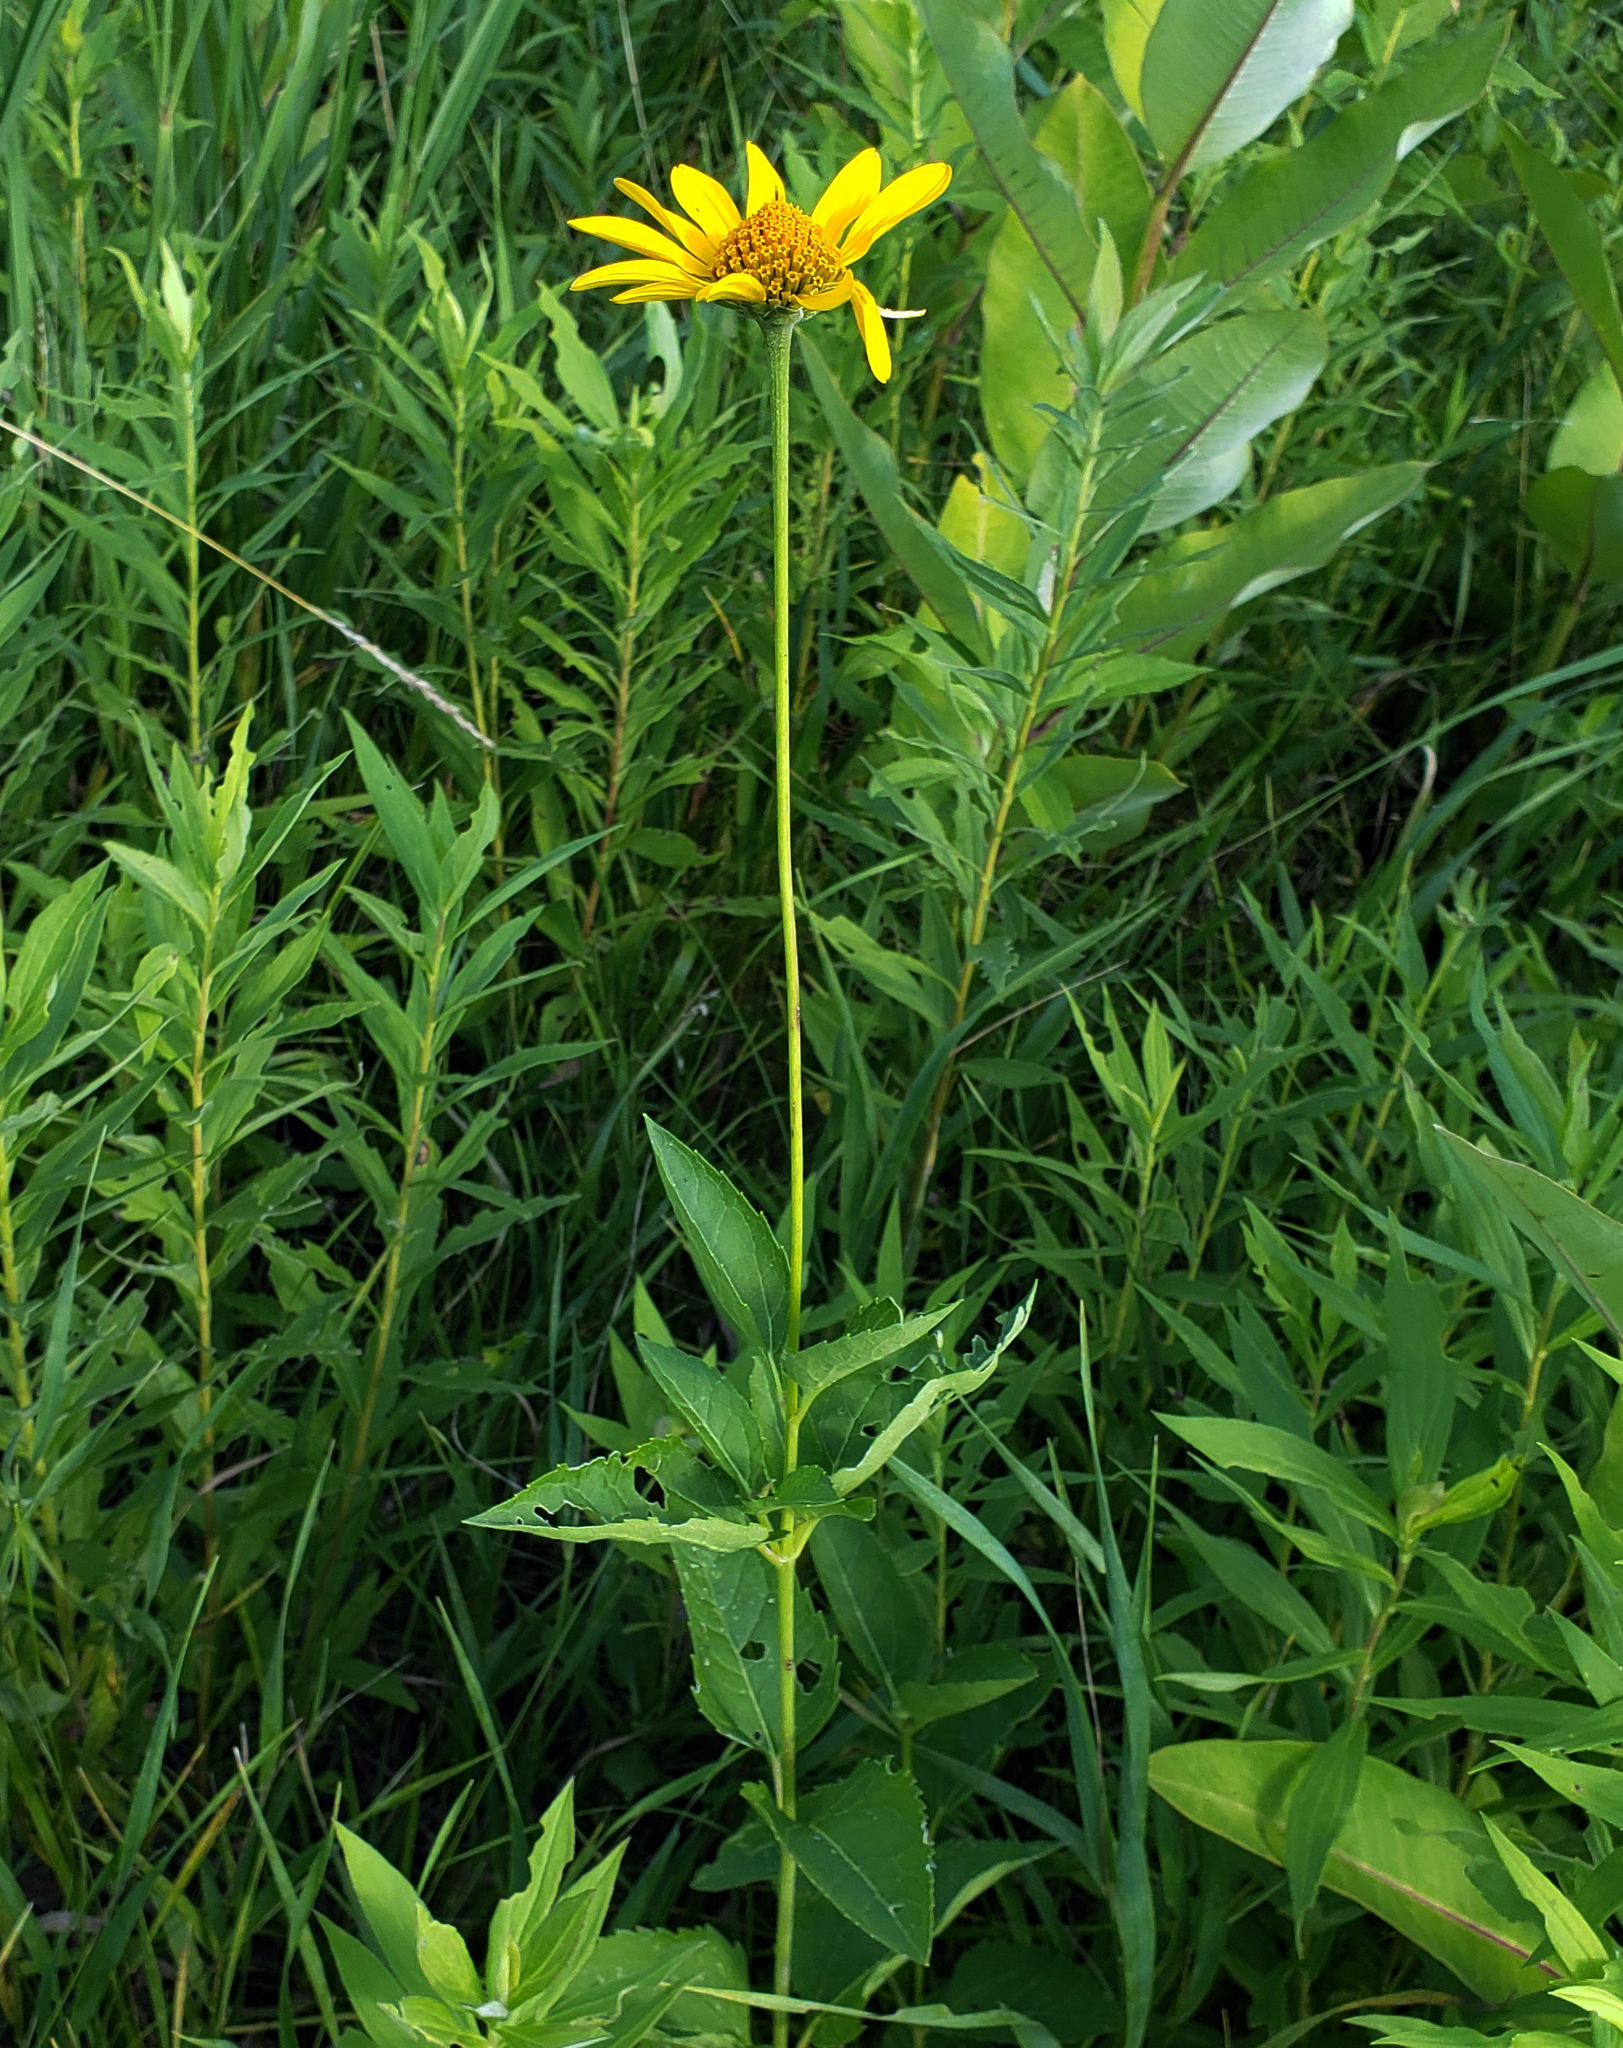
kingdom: Plantae
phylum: Tracheophyta
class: Magnoliopsida
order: Asterales
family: Asteraceae
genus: Heliopsis
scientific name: Heliopsis helianthoides
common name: False sunflower
